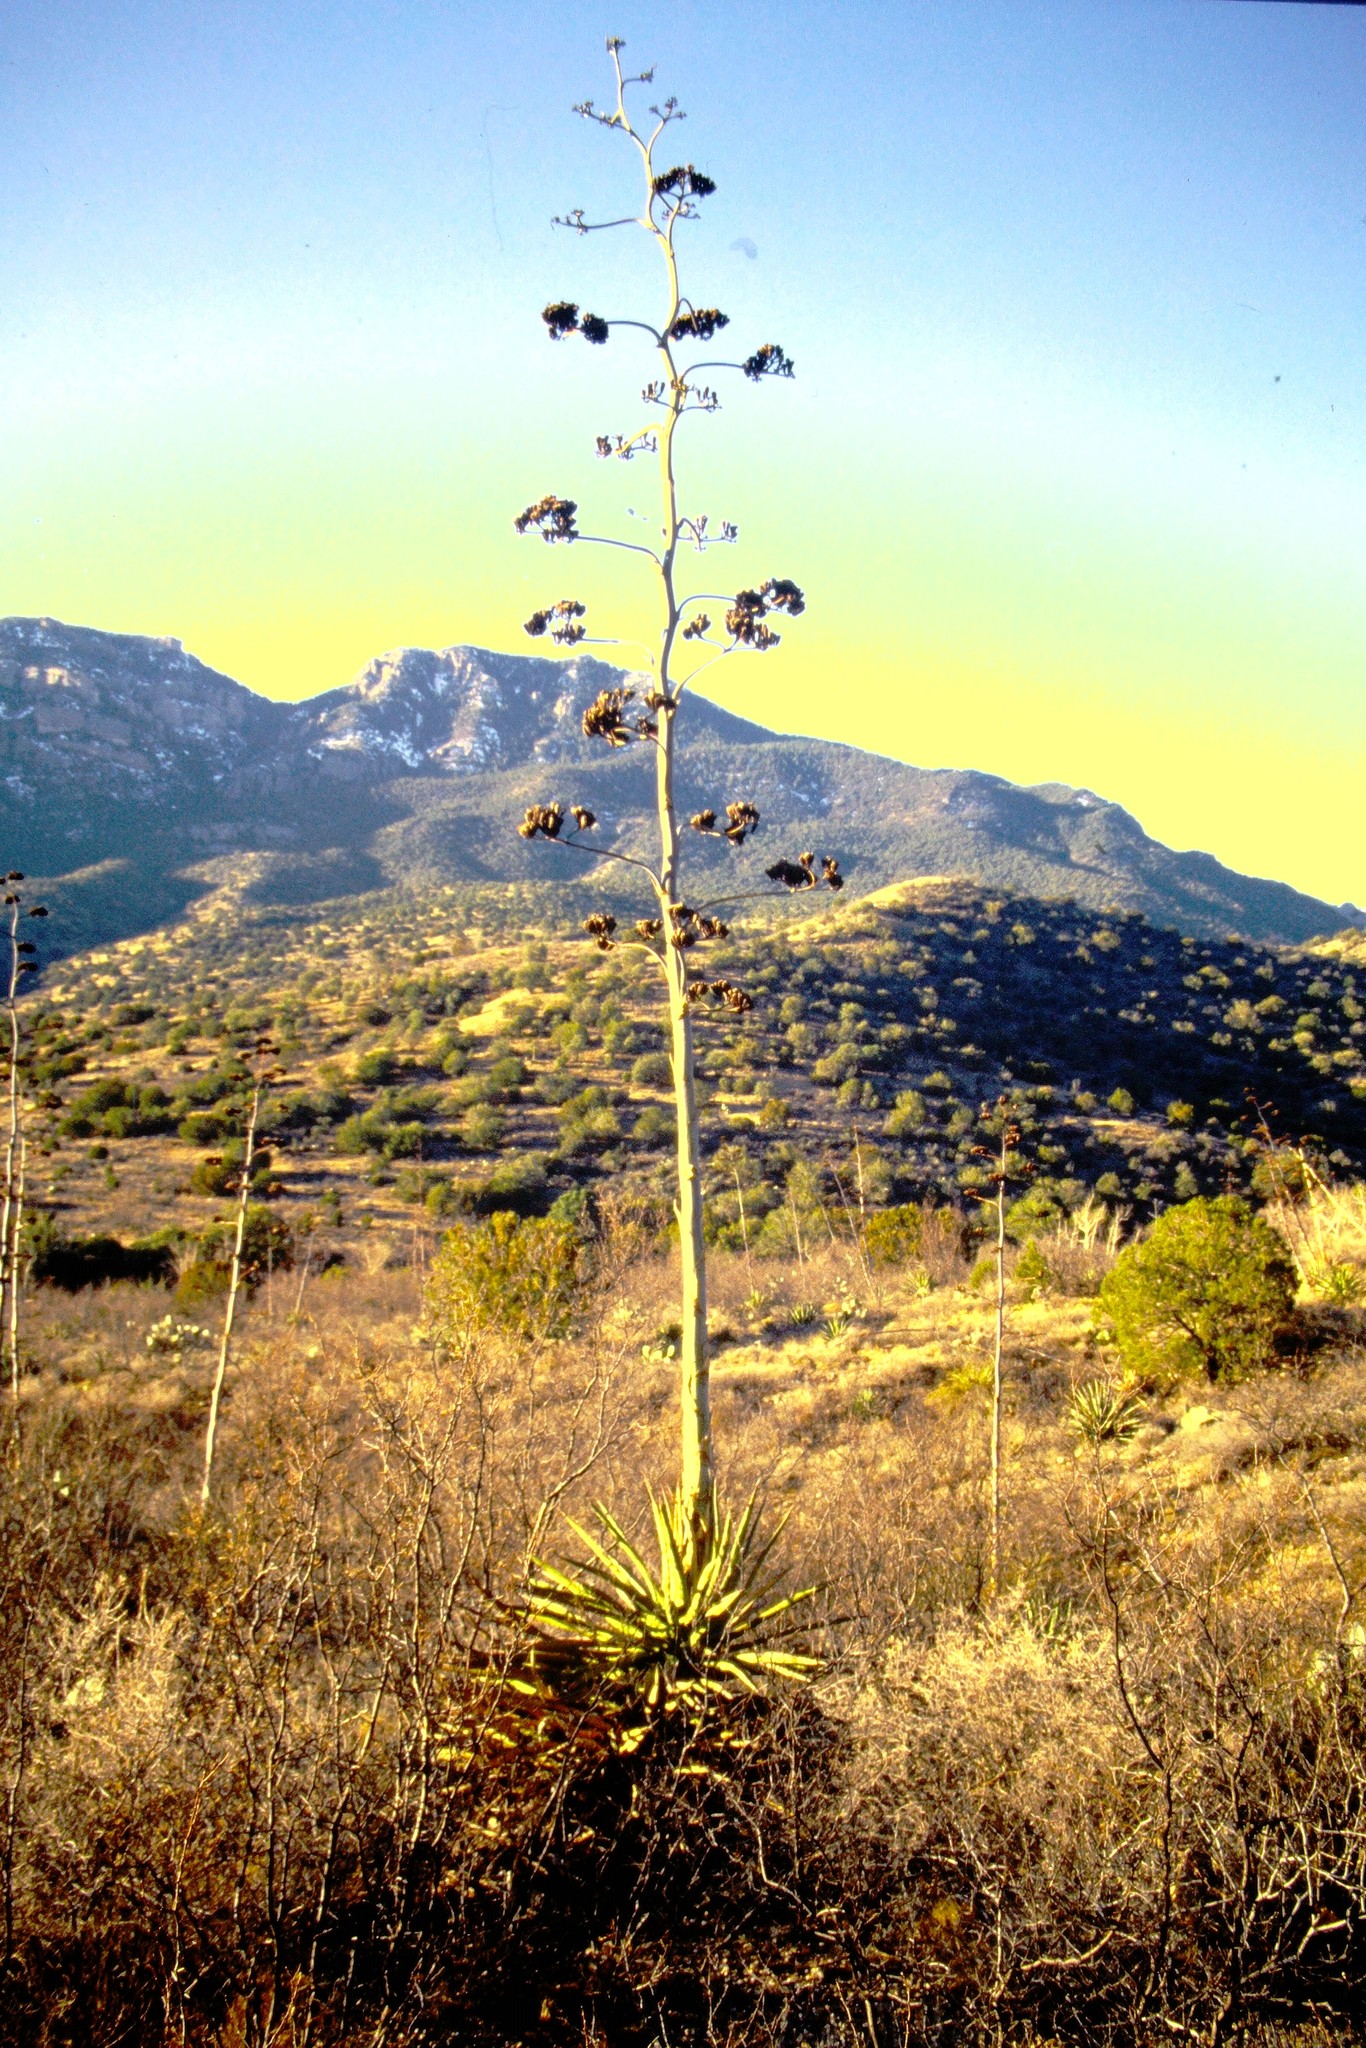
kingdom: Plantae
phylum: Tracheophyta
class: Liliopsida
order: Asparagales
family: Asparagaceae
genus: Agave
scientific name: Agave palmeri
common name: Palmer agave
